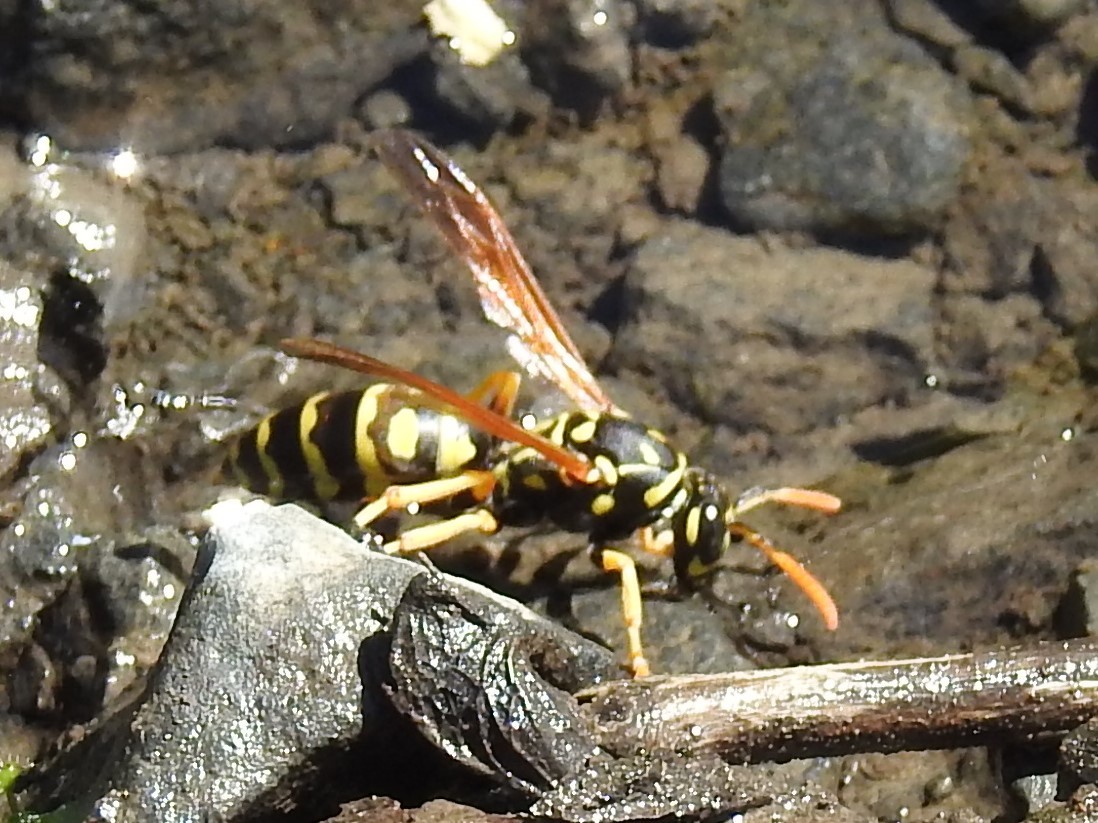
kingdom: Animalia
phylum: Arthropoda
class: Insecta
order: Hymenoptera
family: Eumenidae
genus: Polistes
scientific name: Polistes dominula
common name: Paper wasp
